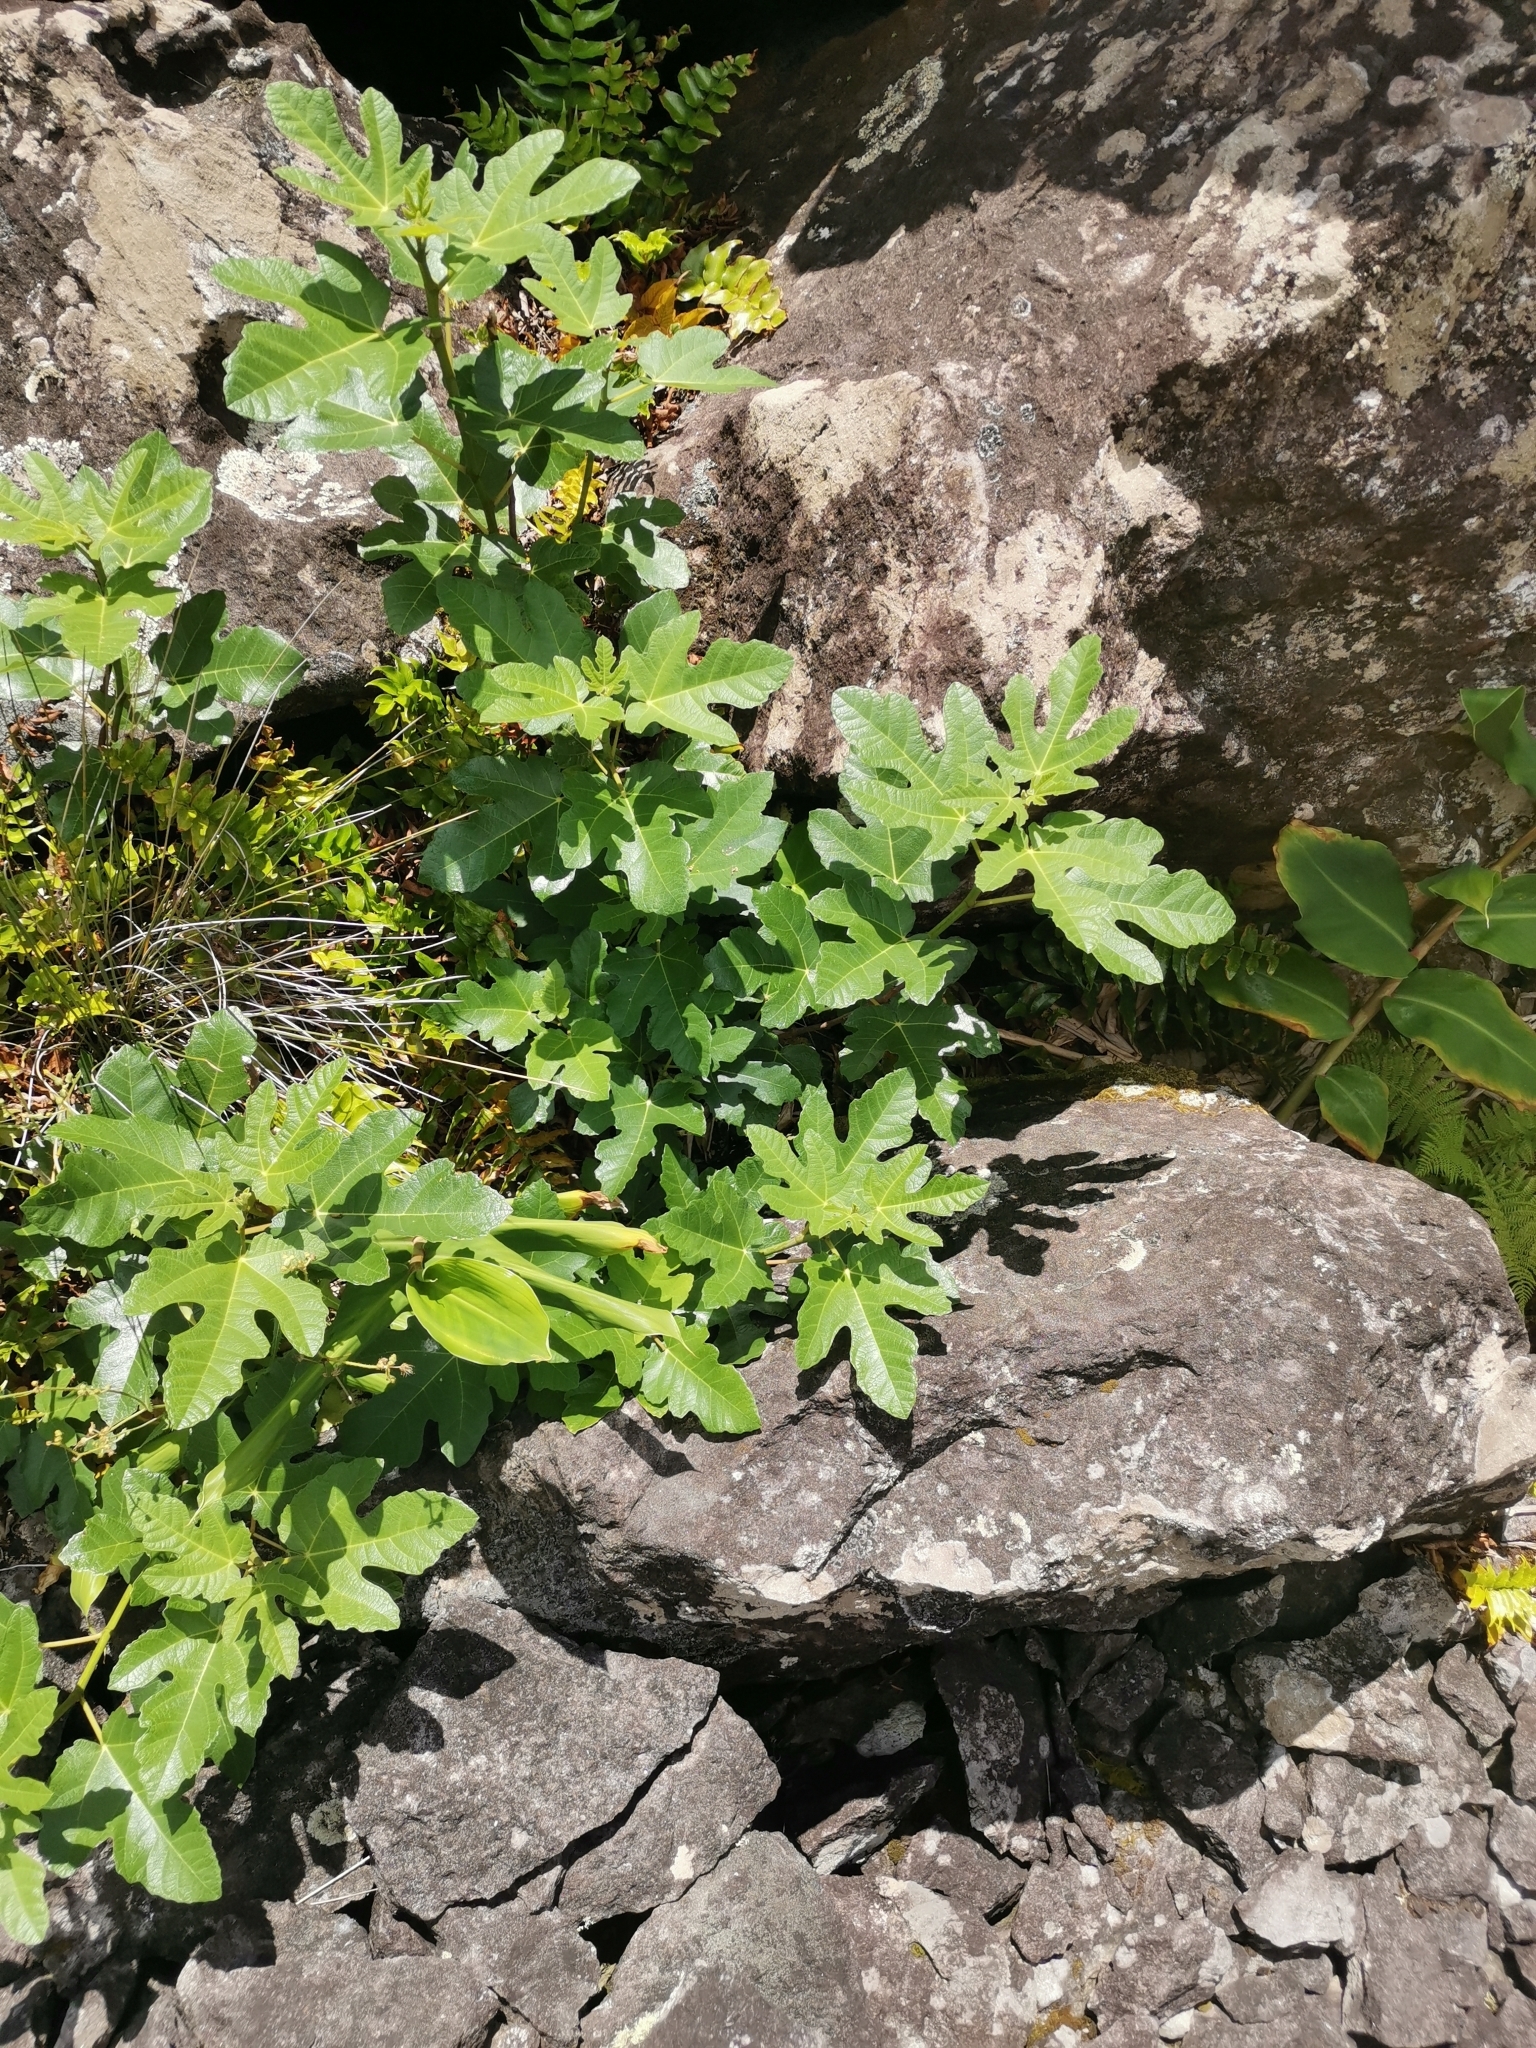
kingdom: Plantae
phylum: Tracheophyta
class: Magnoliopsida
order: Rosales
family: Moraceae
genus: Ficus
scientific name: Ficus carica
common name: Fig
